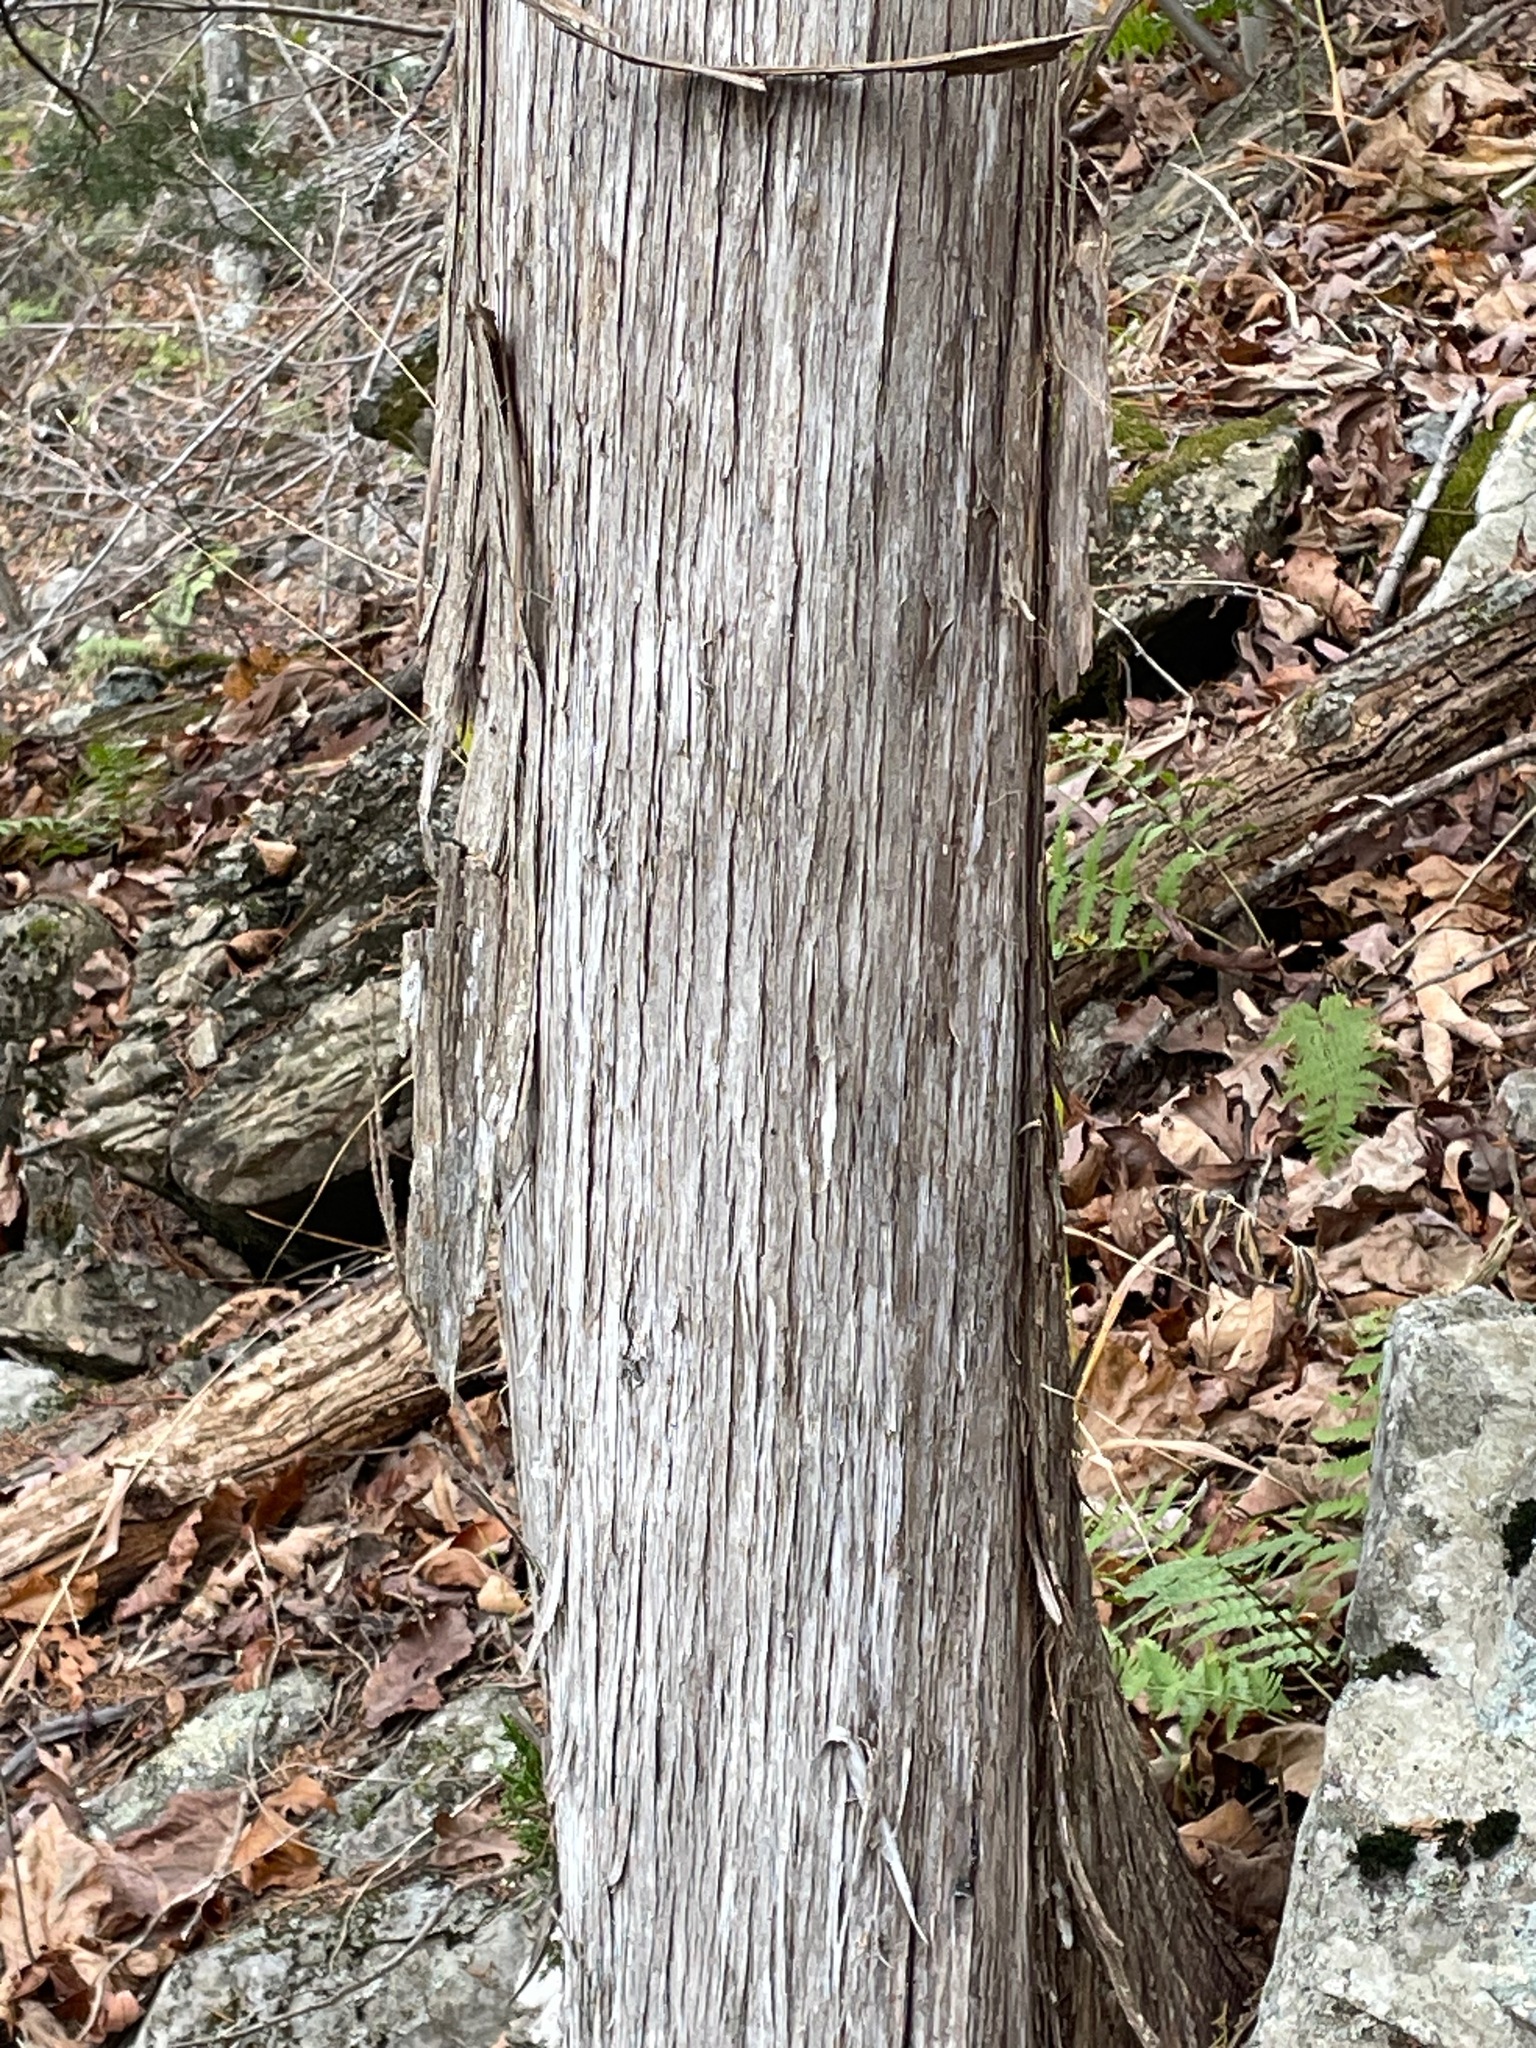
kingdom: Plantae
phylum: Tracheophyta
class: Pinopsida
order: Pinales
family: Cupressaceae
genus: Juniperus
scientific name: Juniperus virginiana
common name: Red juniper
